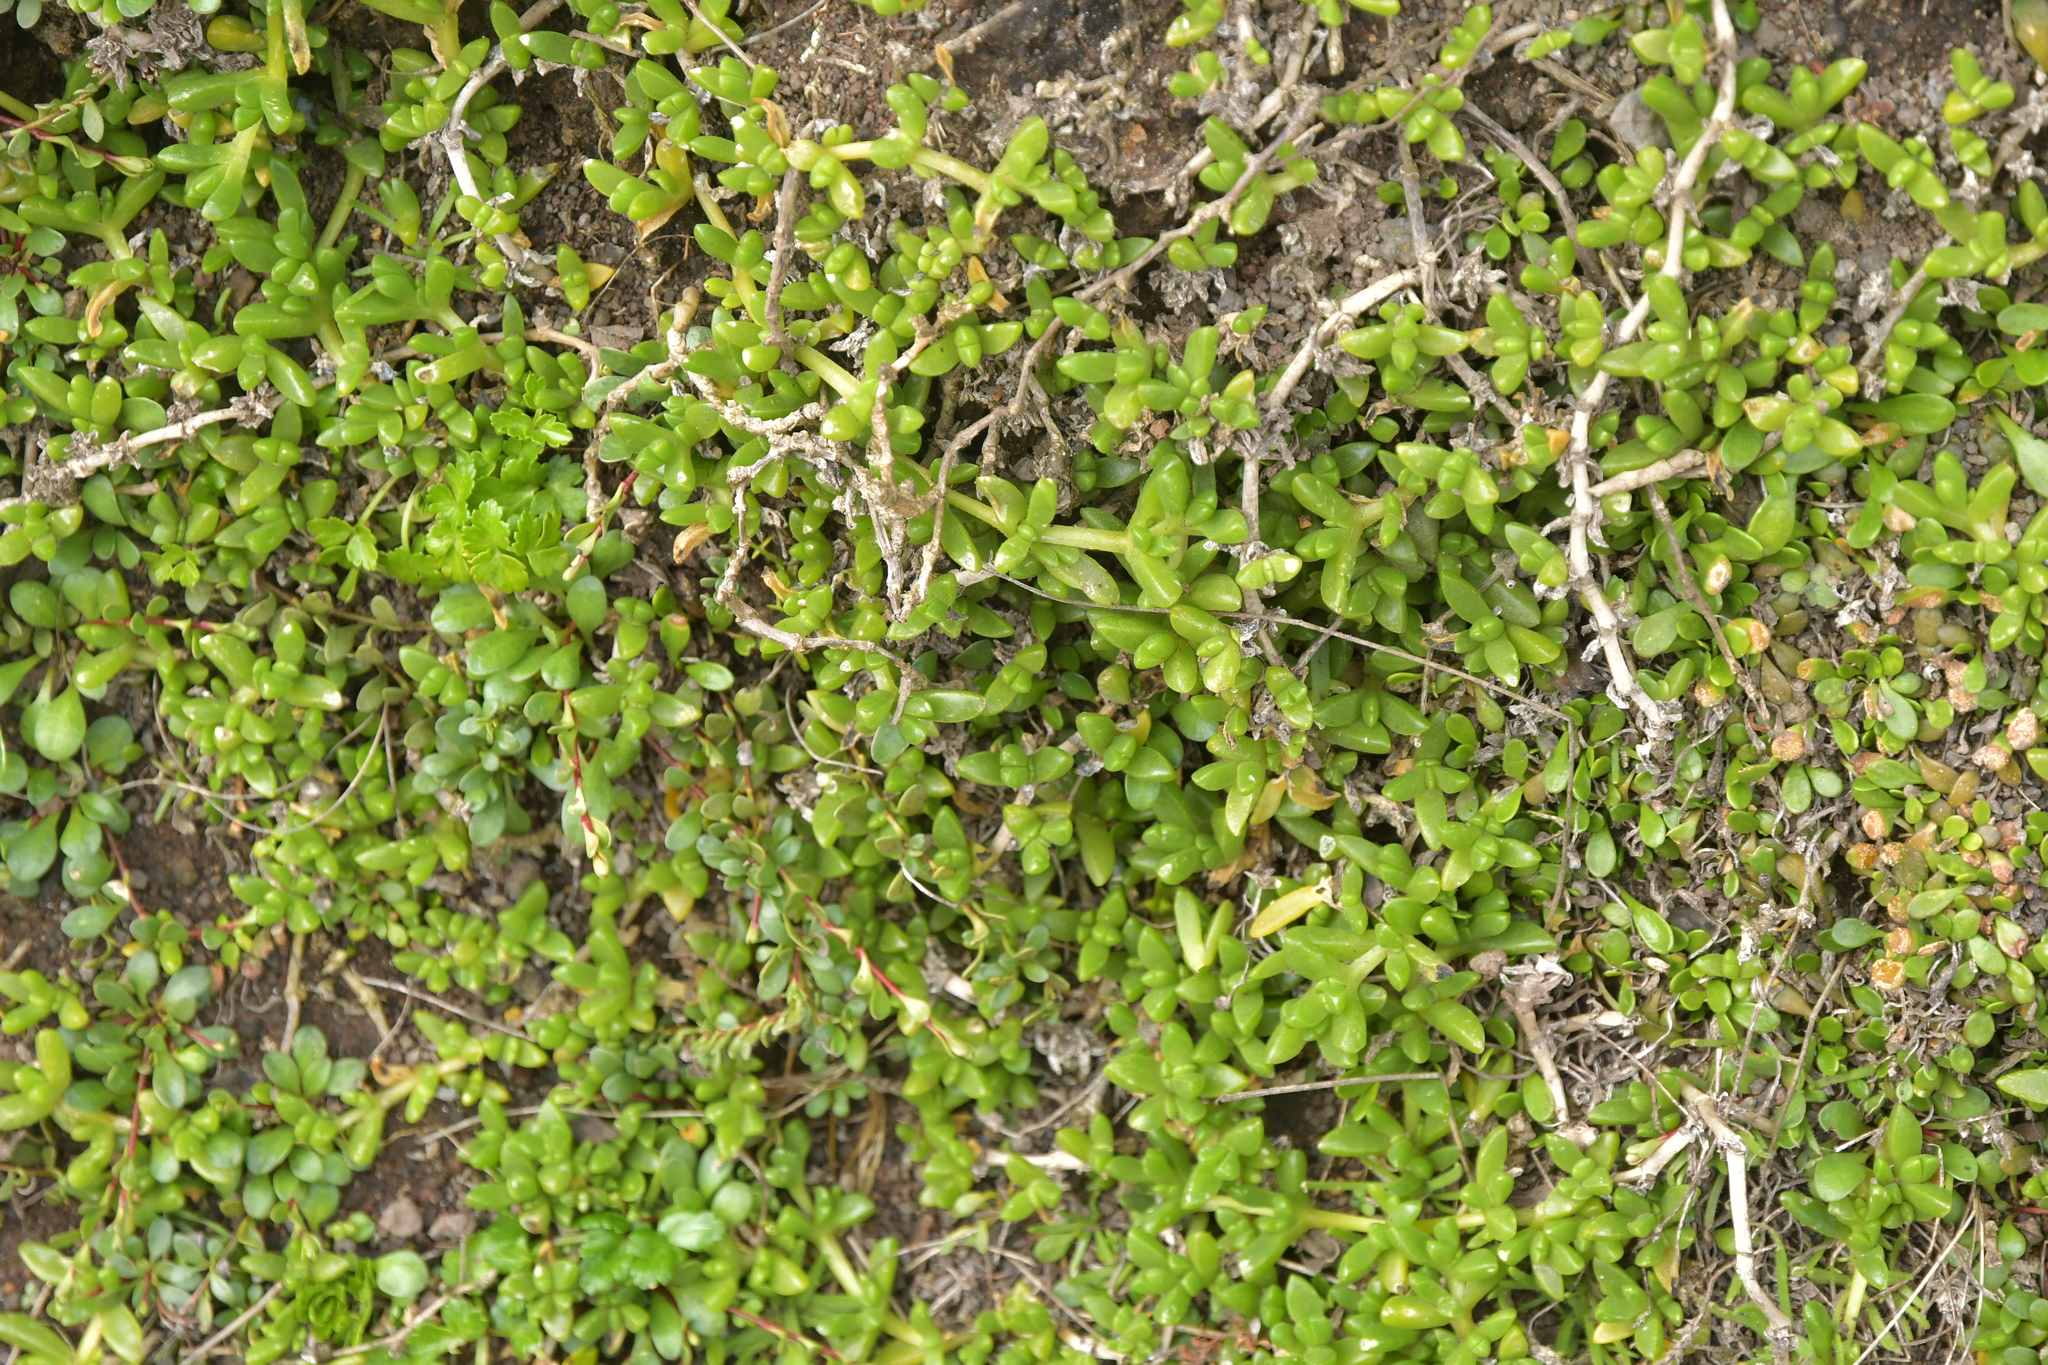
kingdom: Plantae
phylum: Tracheophyta
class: Magnoliopsida
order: Caryophyllales
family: Aizoaceae
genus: Disphyma
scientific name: Disphyma papillatum
